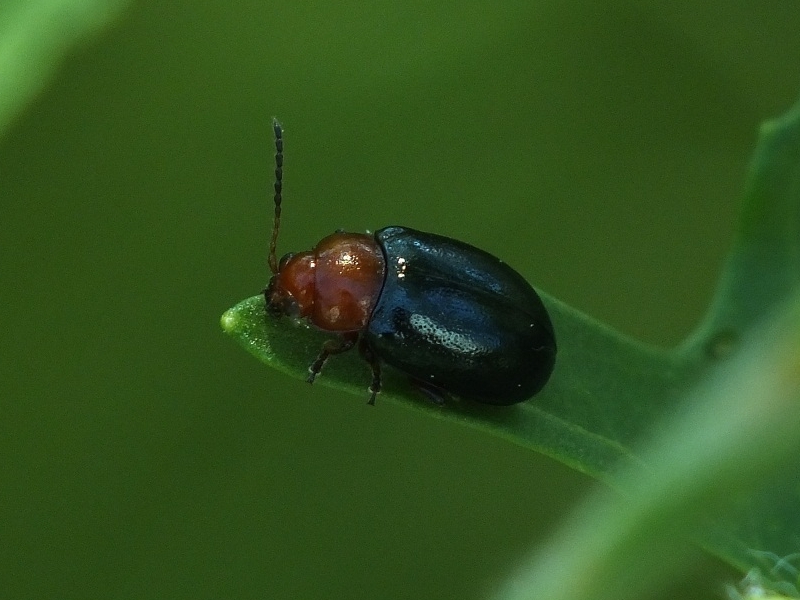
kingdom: Animalia
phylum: Arthropoda
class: Insecta
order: Coleoptera
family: Chrysomelidae
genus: Podagrica
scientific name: Podagrica fuscicornis
